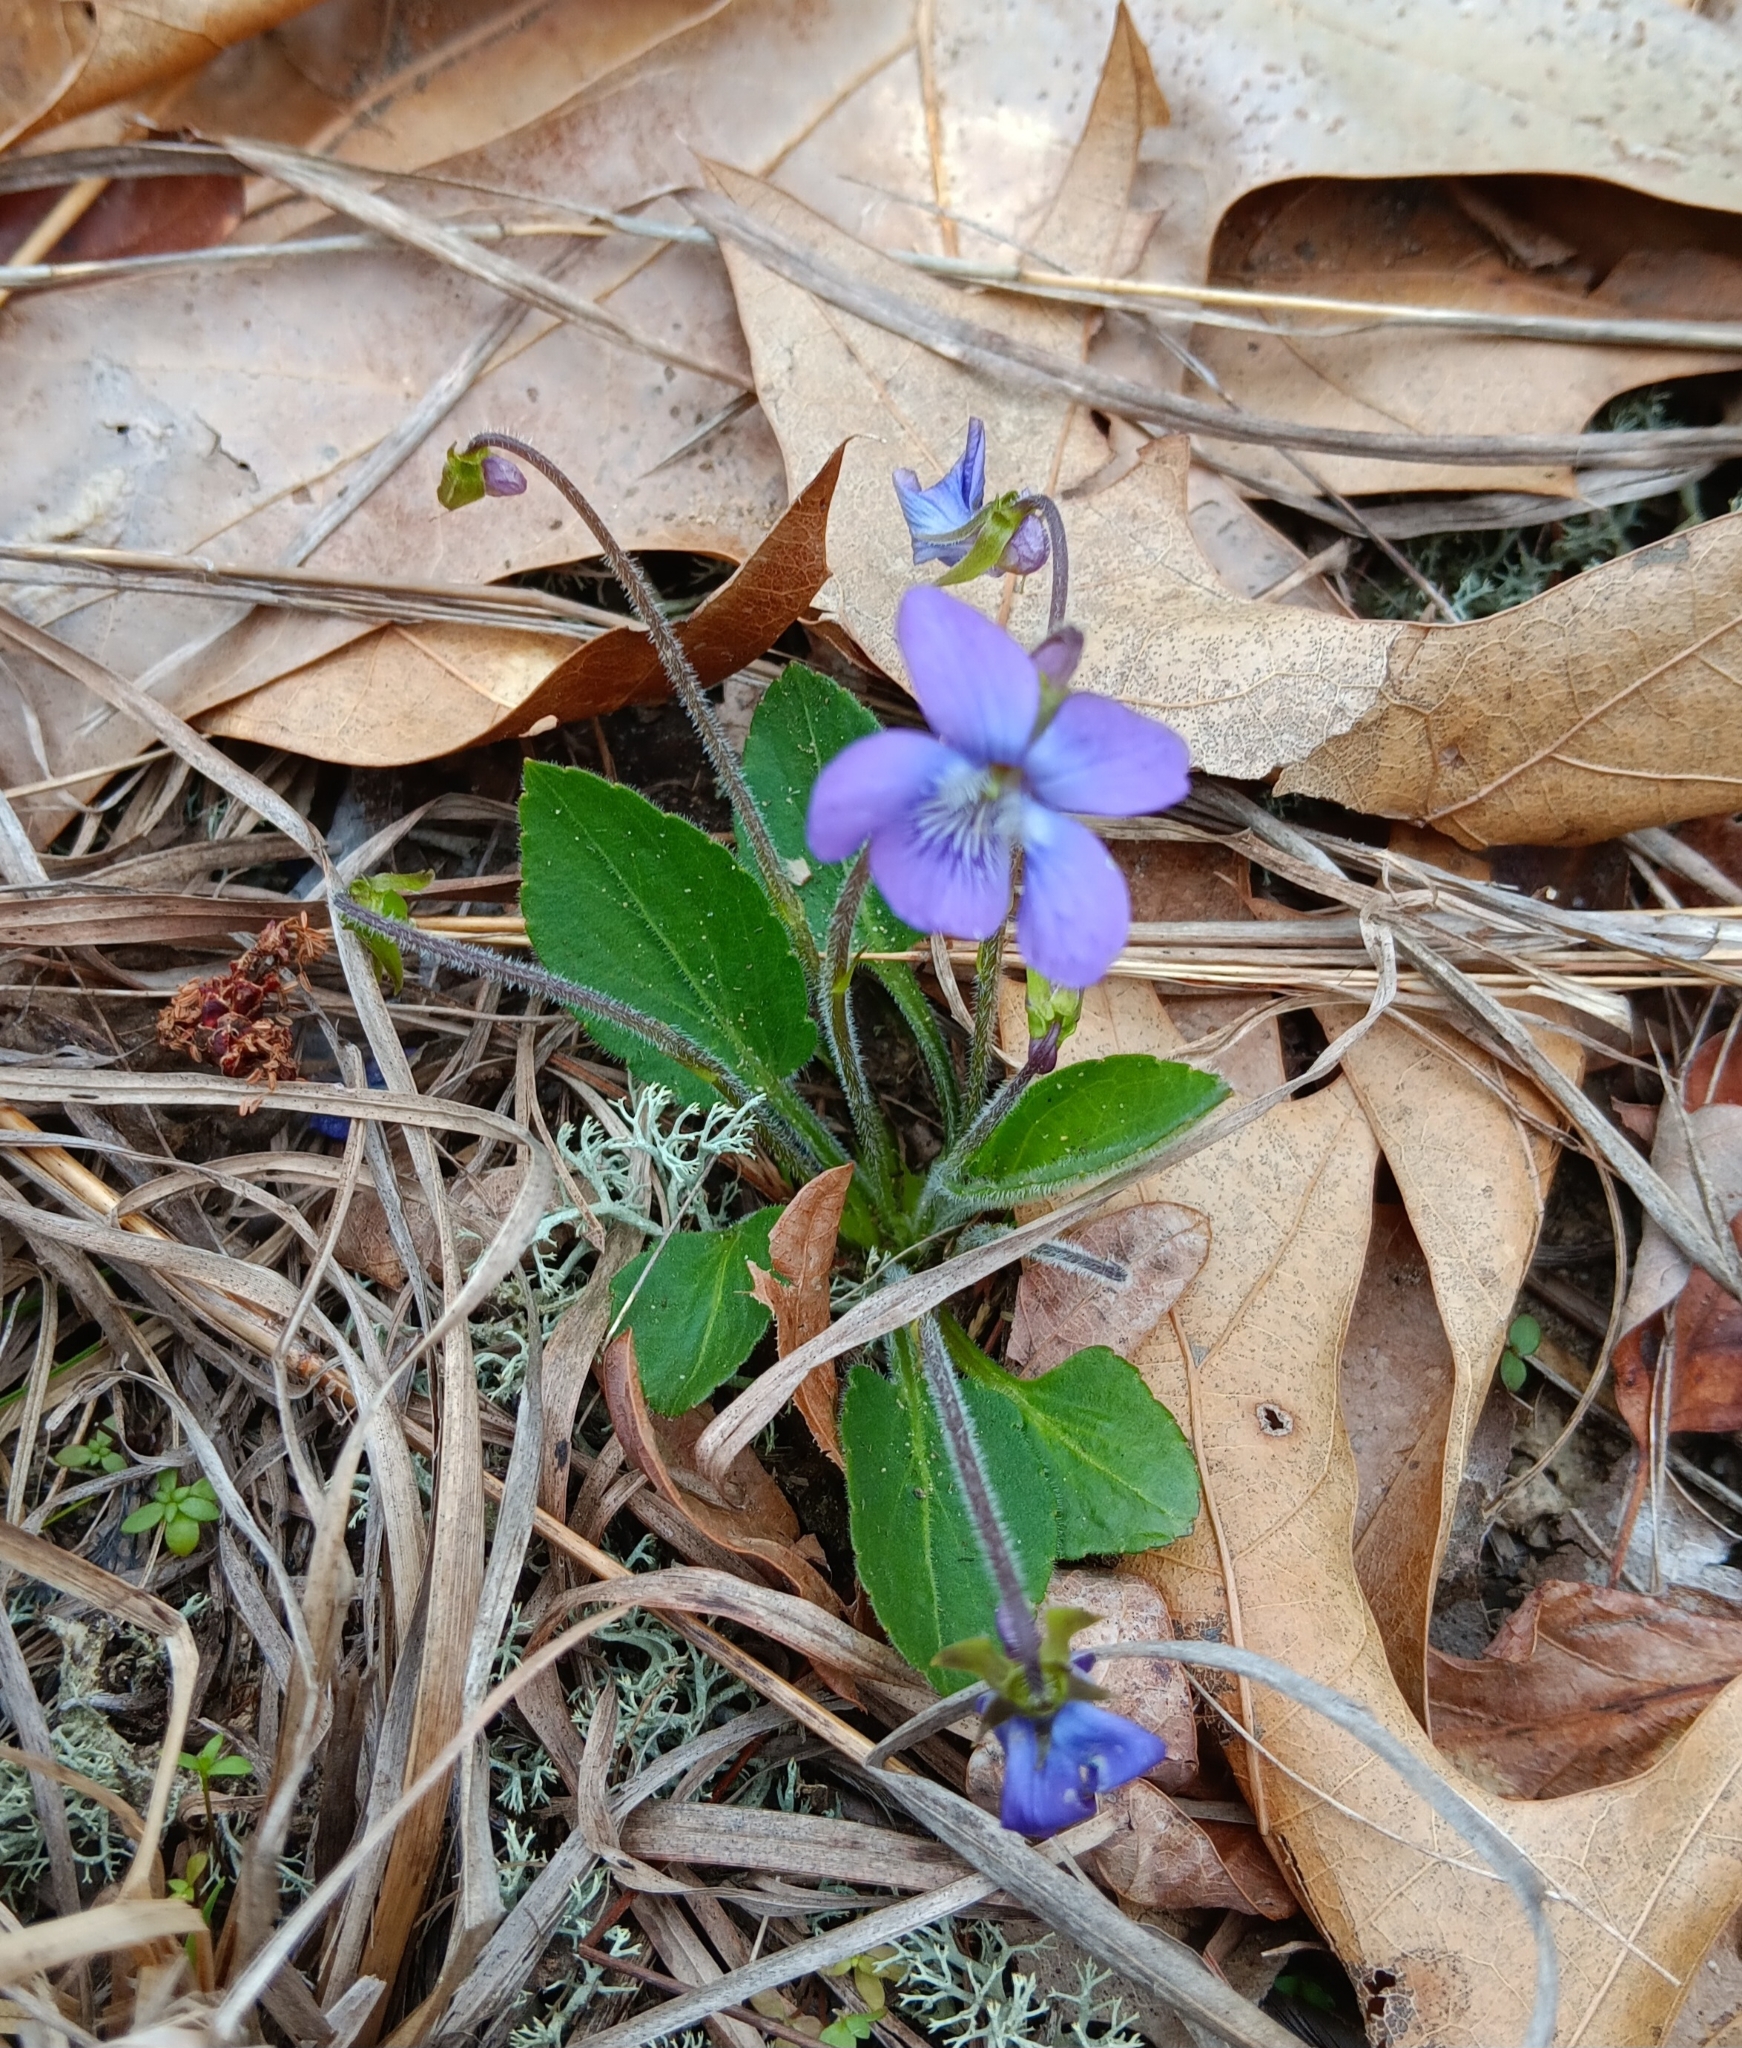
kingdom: Plantae
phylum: Tracheophyta
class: Magnoliopsida
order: Malpighiales
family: Violaceae
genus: Viola
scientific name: Viola fimbriatula
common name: Sand violet
